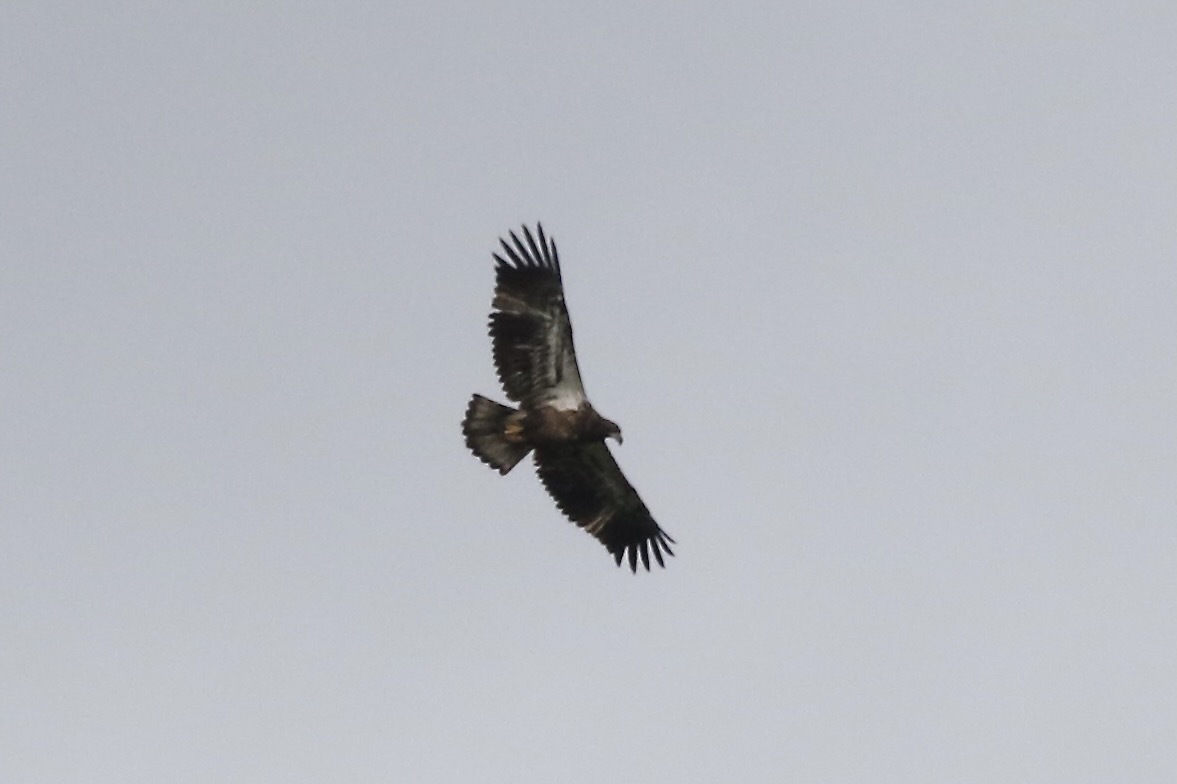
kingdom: Animalia
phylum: Chordata
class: Aves
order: Accipitriformes
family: Accipitridae
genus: Haliaeetus
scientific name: Haliaeetus leucocephalus
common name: Bald eagle
